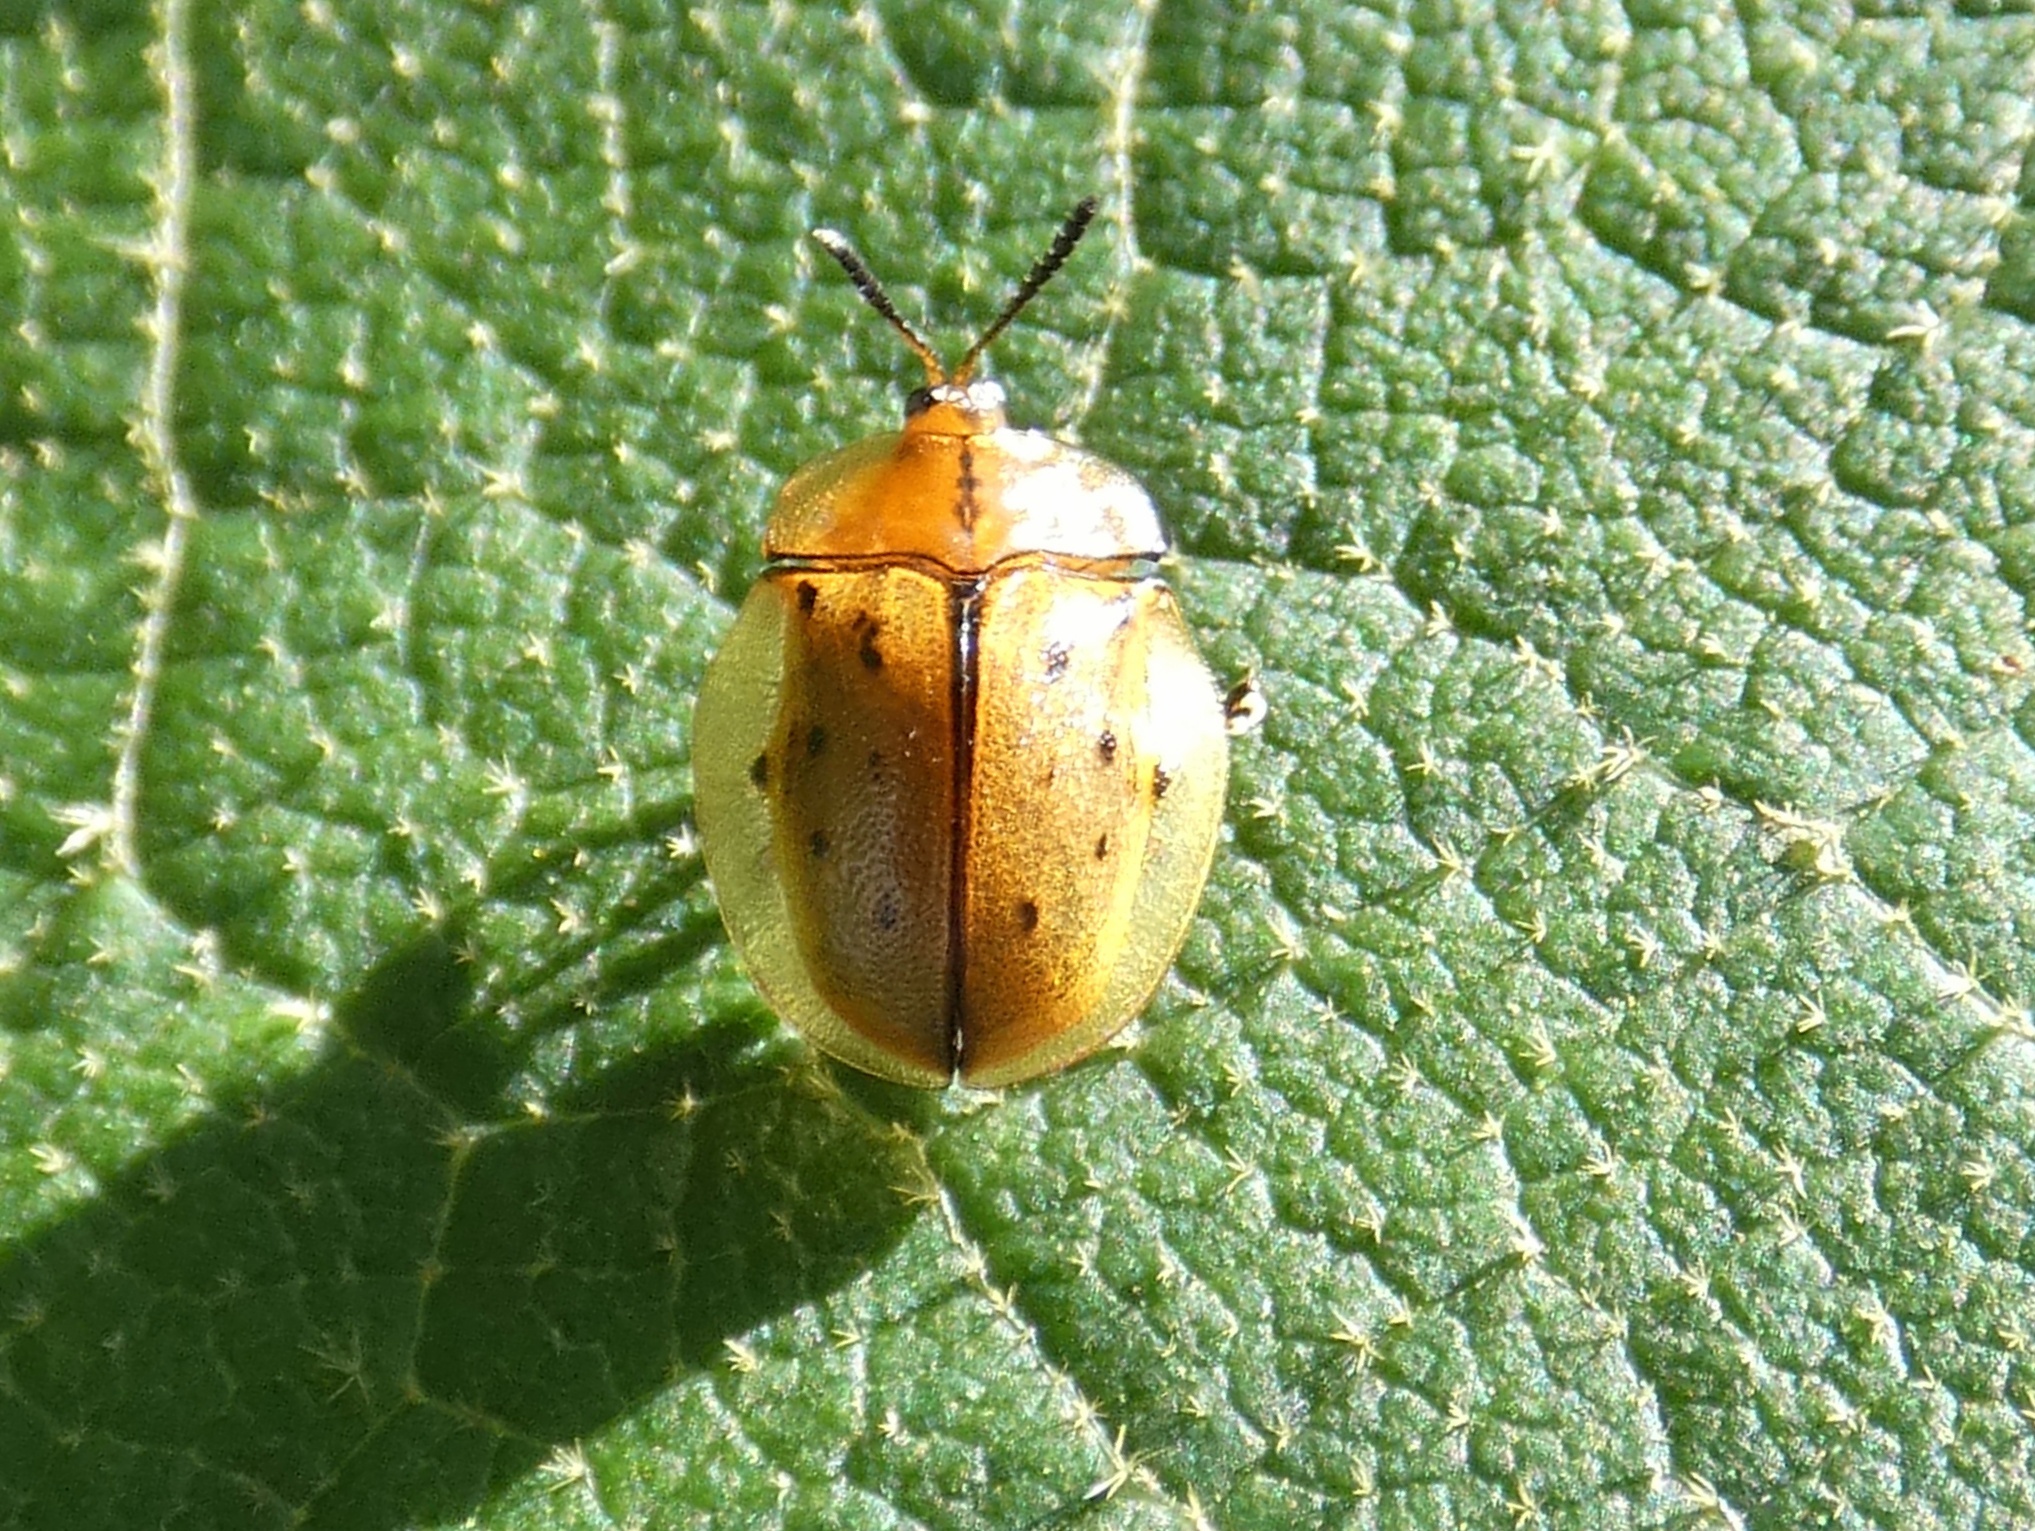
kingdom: Animalia
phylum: Arthropoda
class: Insecta
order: Coleoptera
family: Chrysomelidae
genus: Stolas
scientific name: Stolas pertusa
